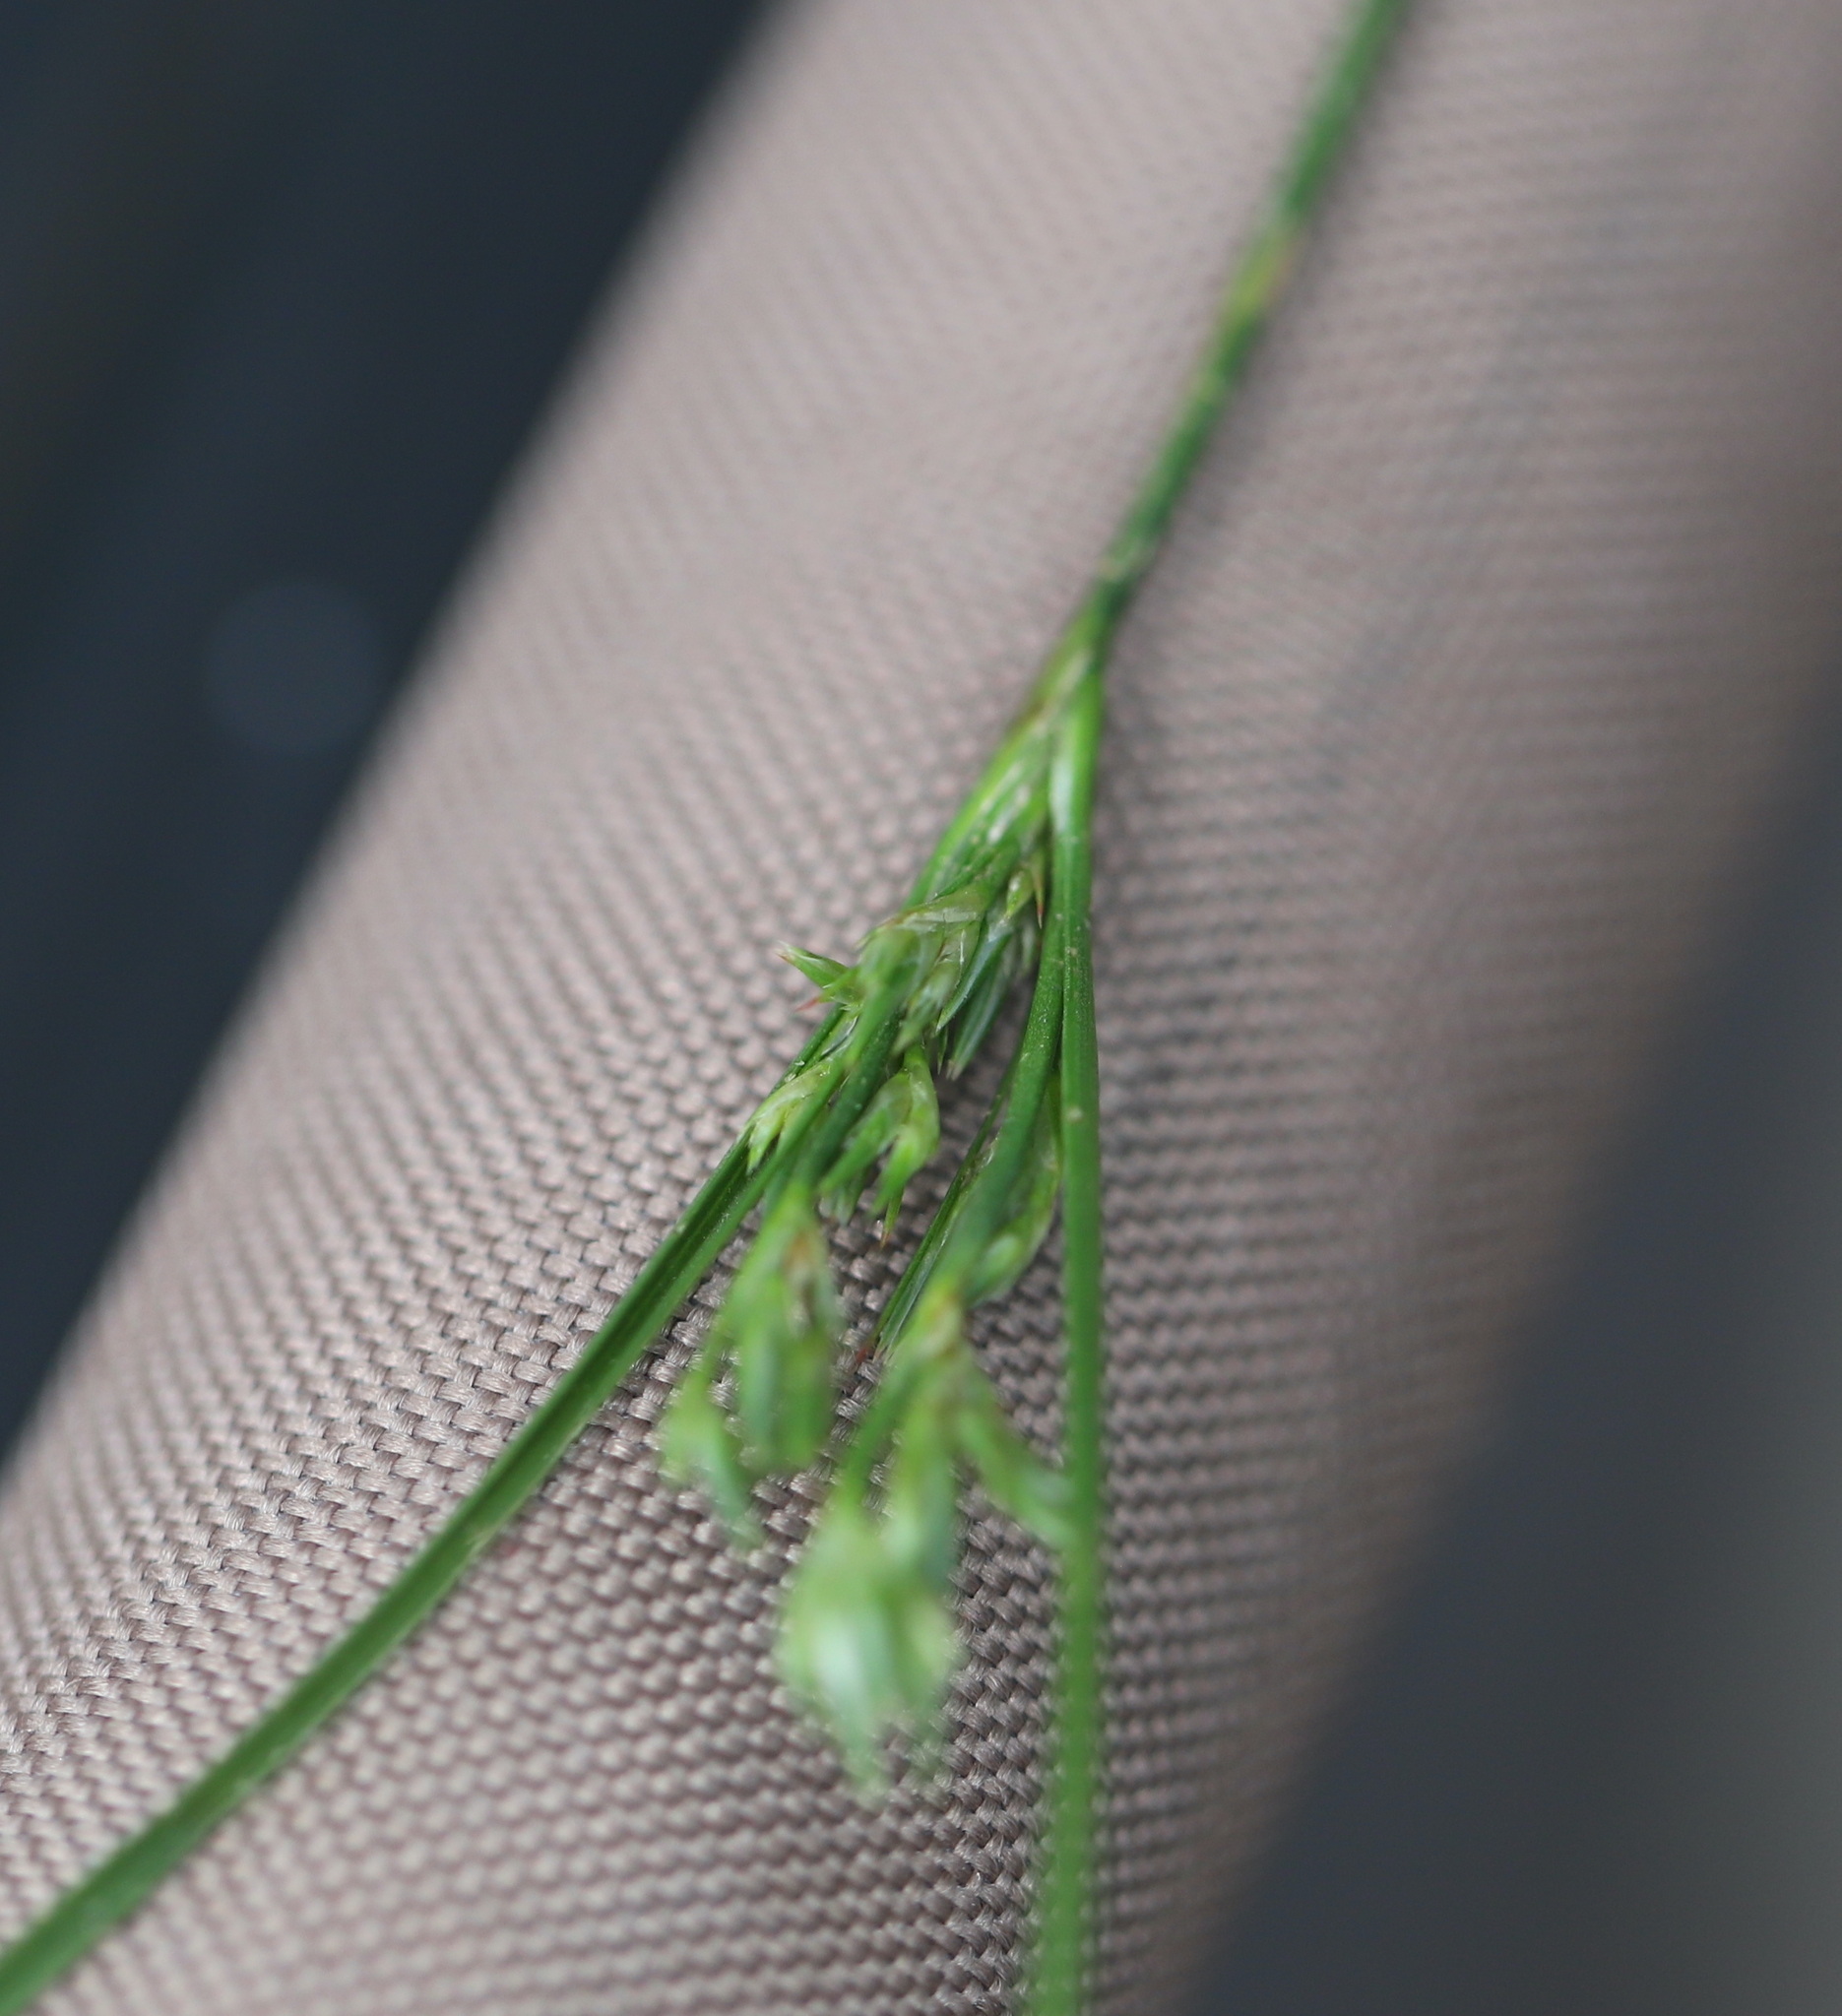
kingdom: Plantae
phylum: Tracheophyta
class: Liliopsida
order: Poales
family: Juncaceae
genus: Juncus
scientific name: Juncus tenuis
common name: Slender rush
